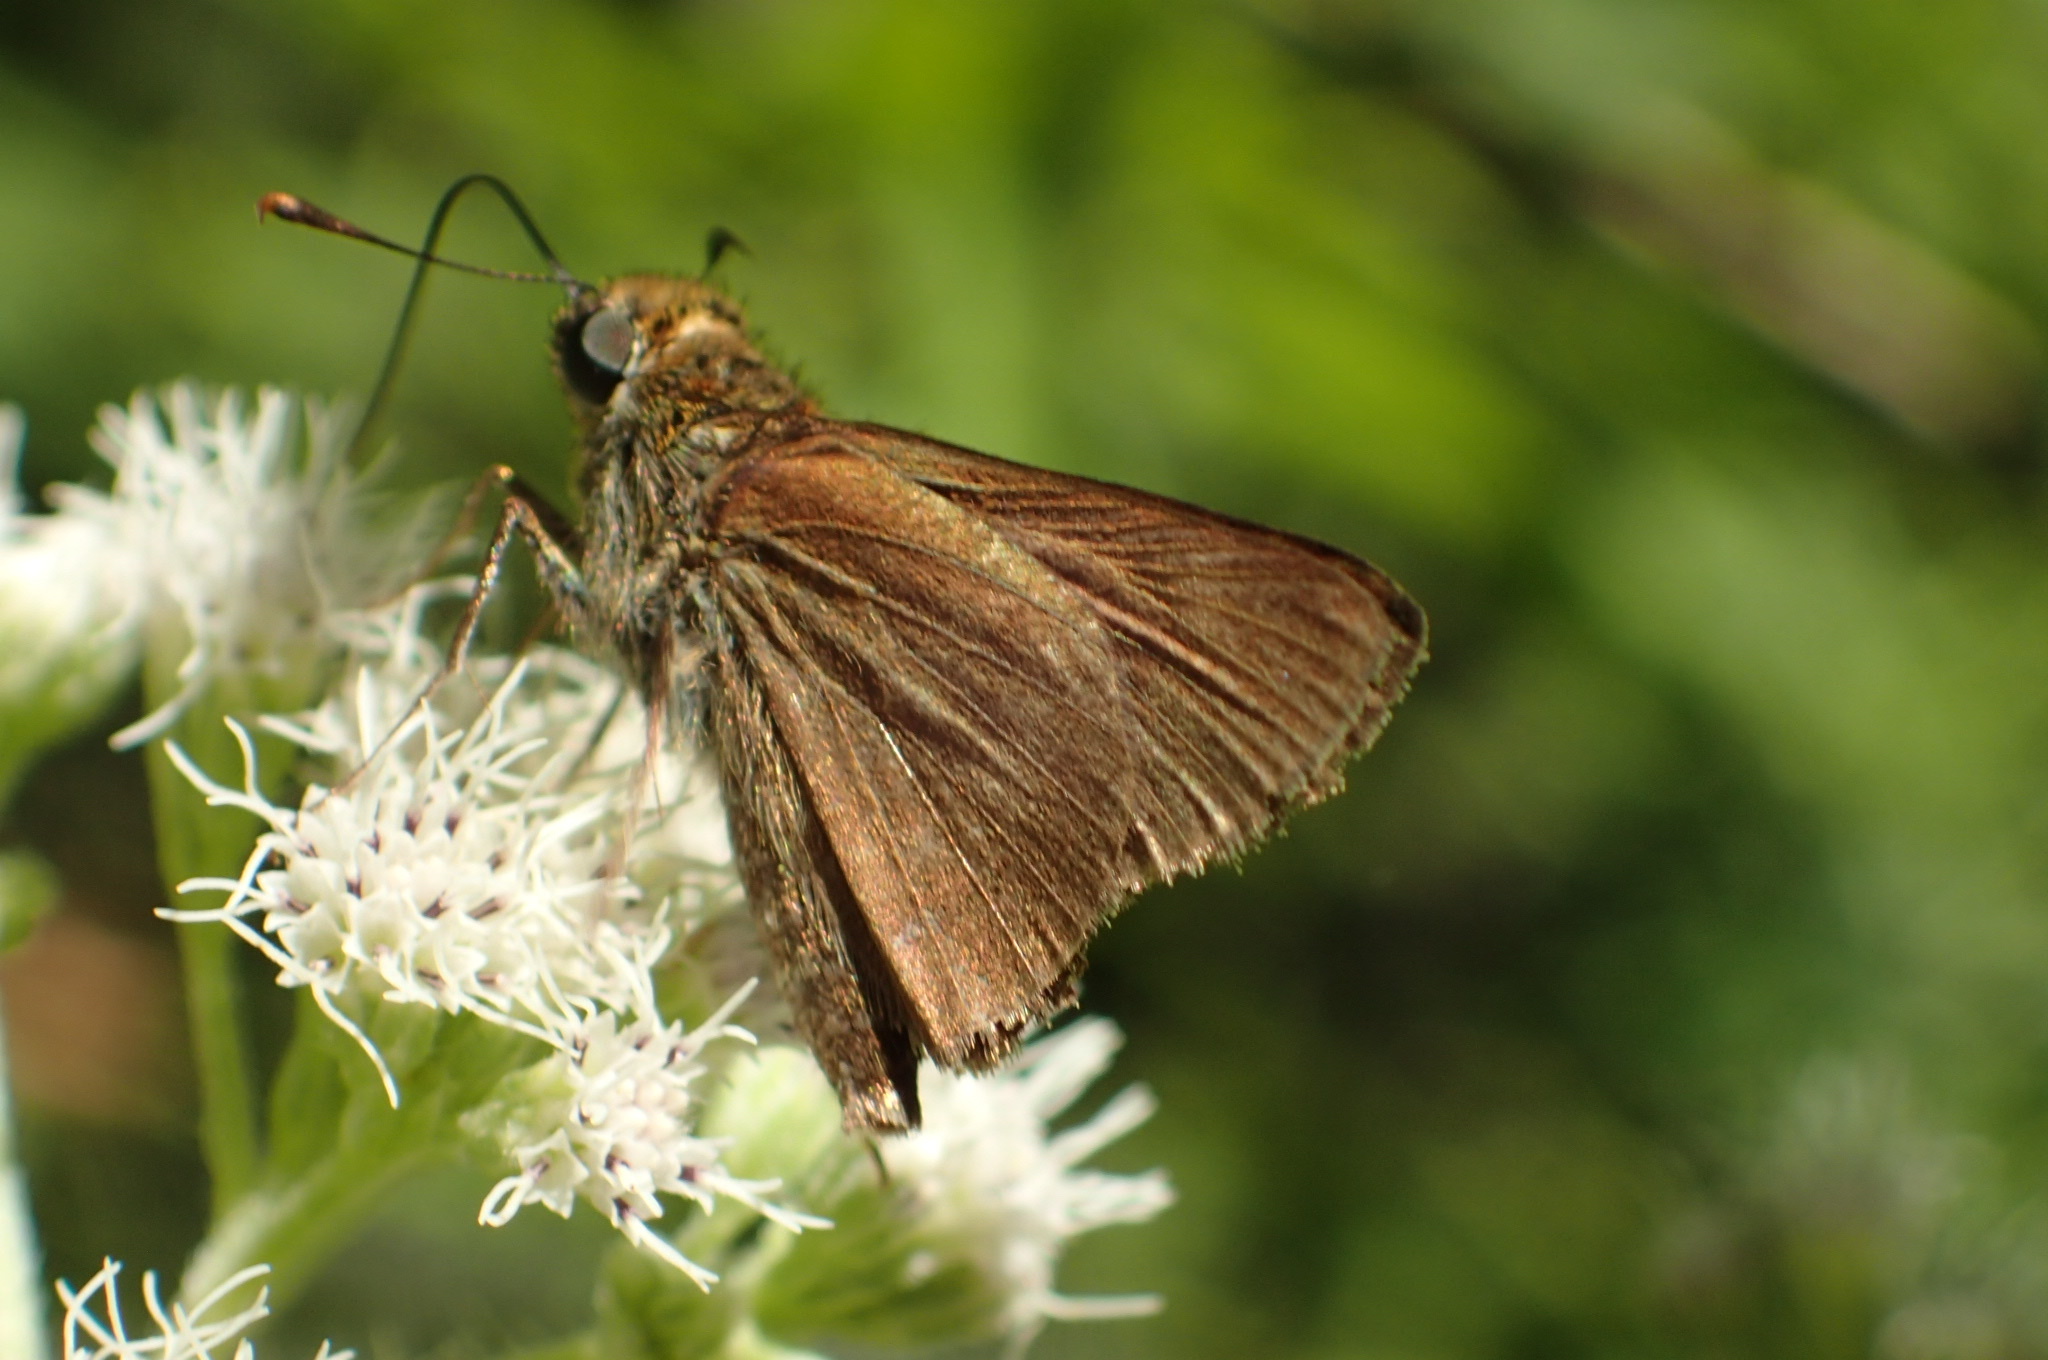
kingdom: Animalia
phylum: Arthropoda
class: Insecta
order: Lepidoptera
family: Hesperiidae
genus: Euphyes
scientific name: Euphyes vestris
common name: Dun skipper
